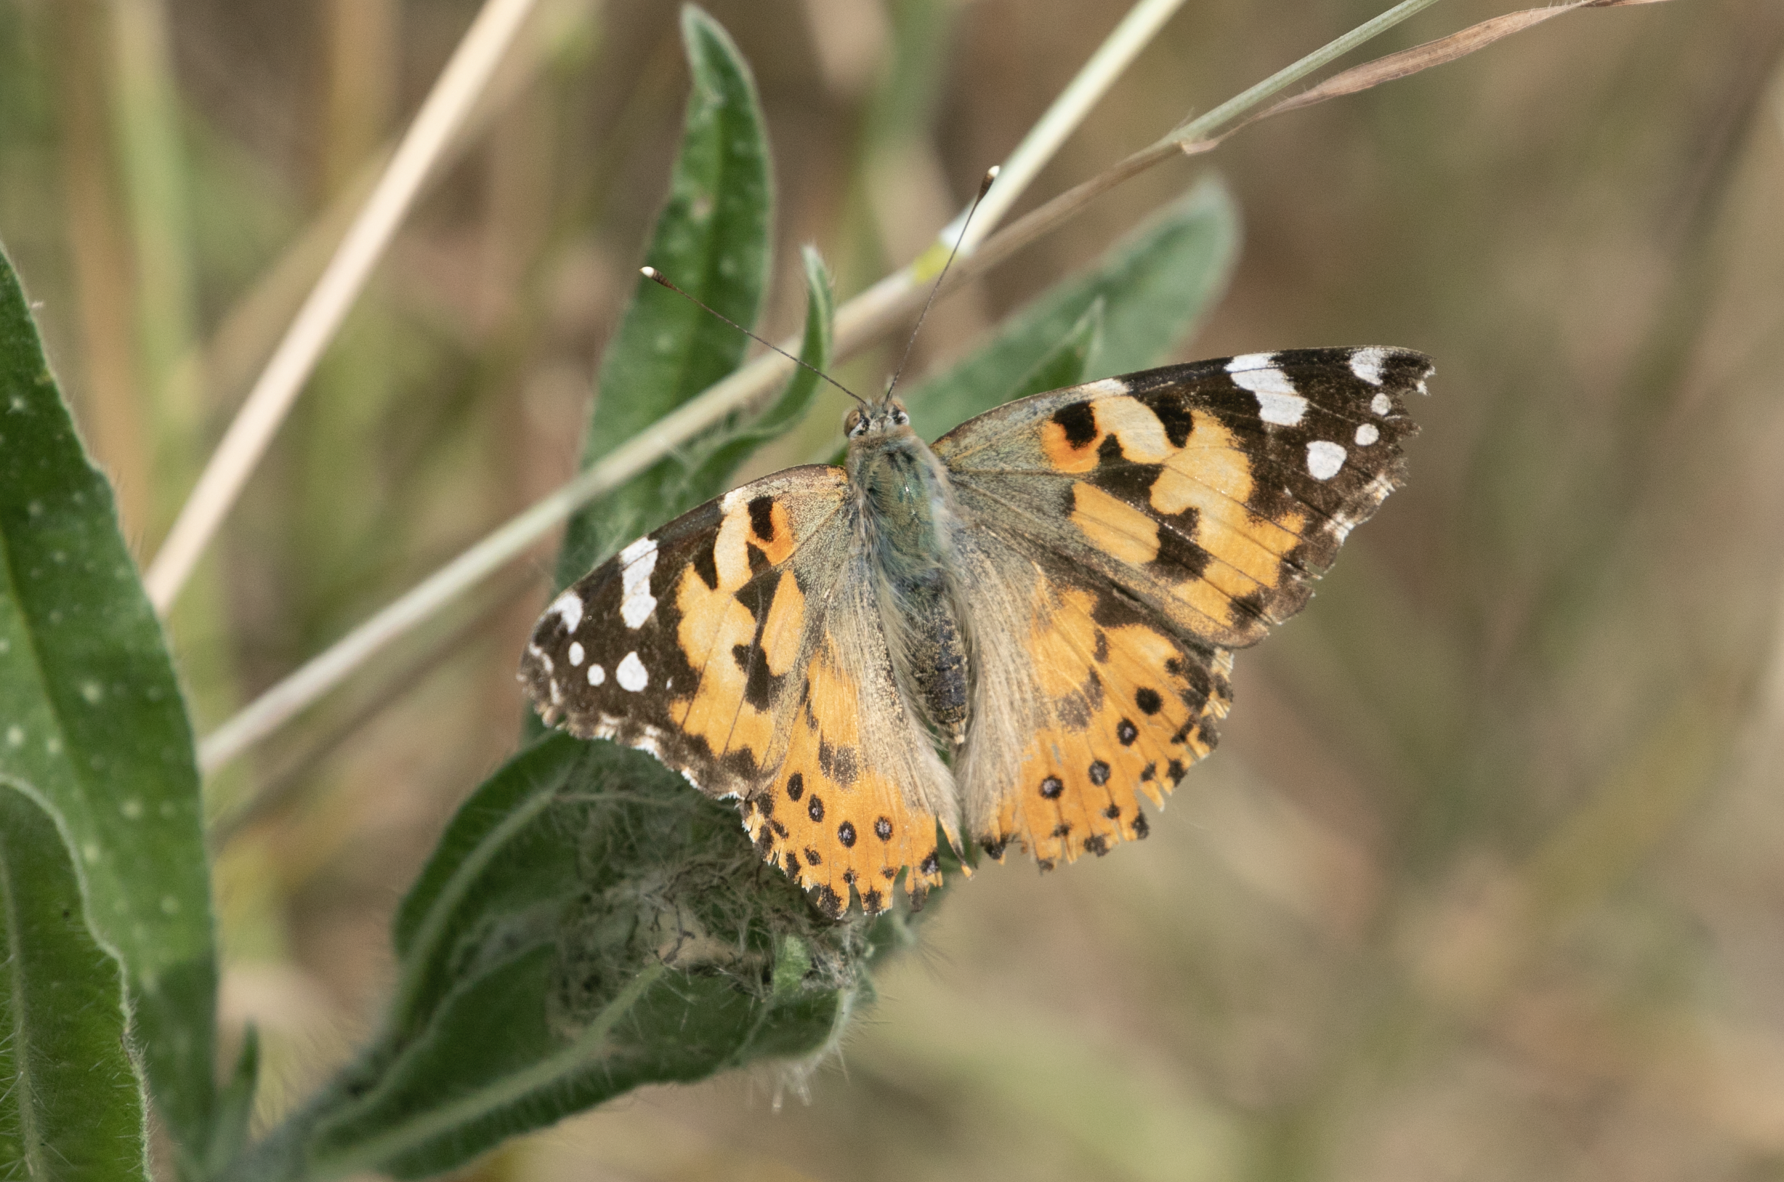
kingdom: Animalia
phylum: Arthropoda
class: Insecta
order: Lepidoptera
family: Nymphalidae
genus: Vanessa
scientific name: Vanessa cardui
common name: Painted lady
